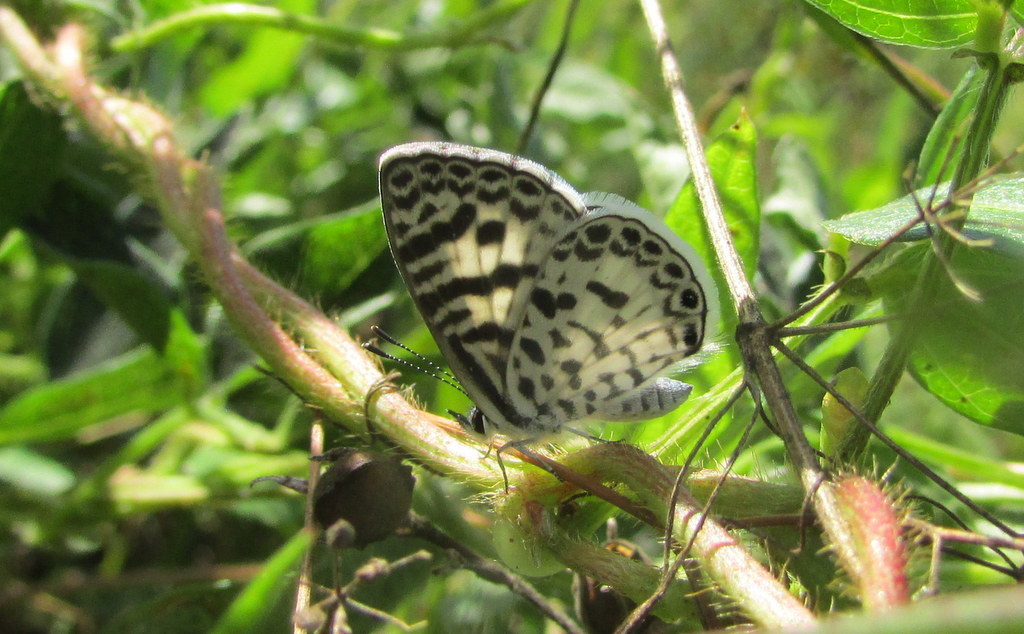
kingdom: Animalia
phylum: Arthropoda
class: Insecta
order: Lepidoptera
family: Lycaenidae
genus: Leptotes
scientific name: Leptotes cassius
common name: Cassius blue
